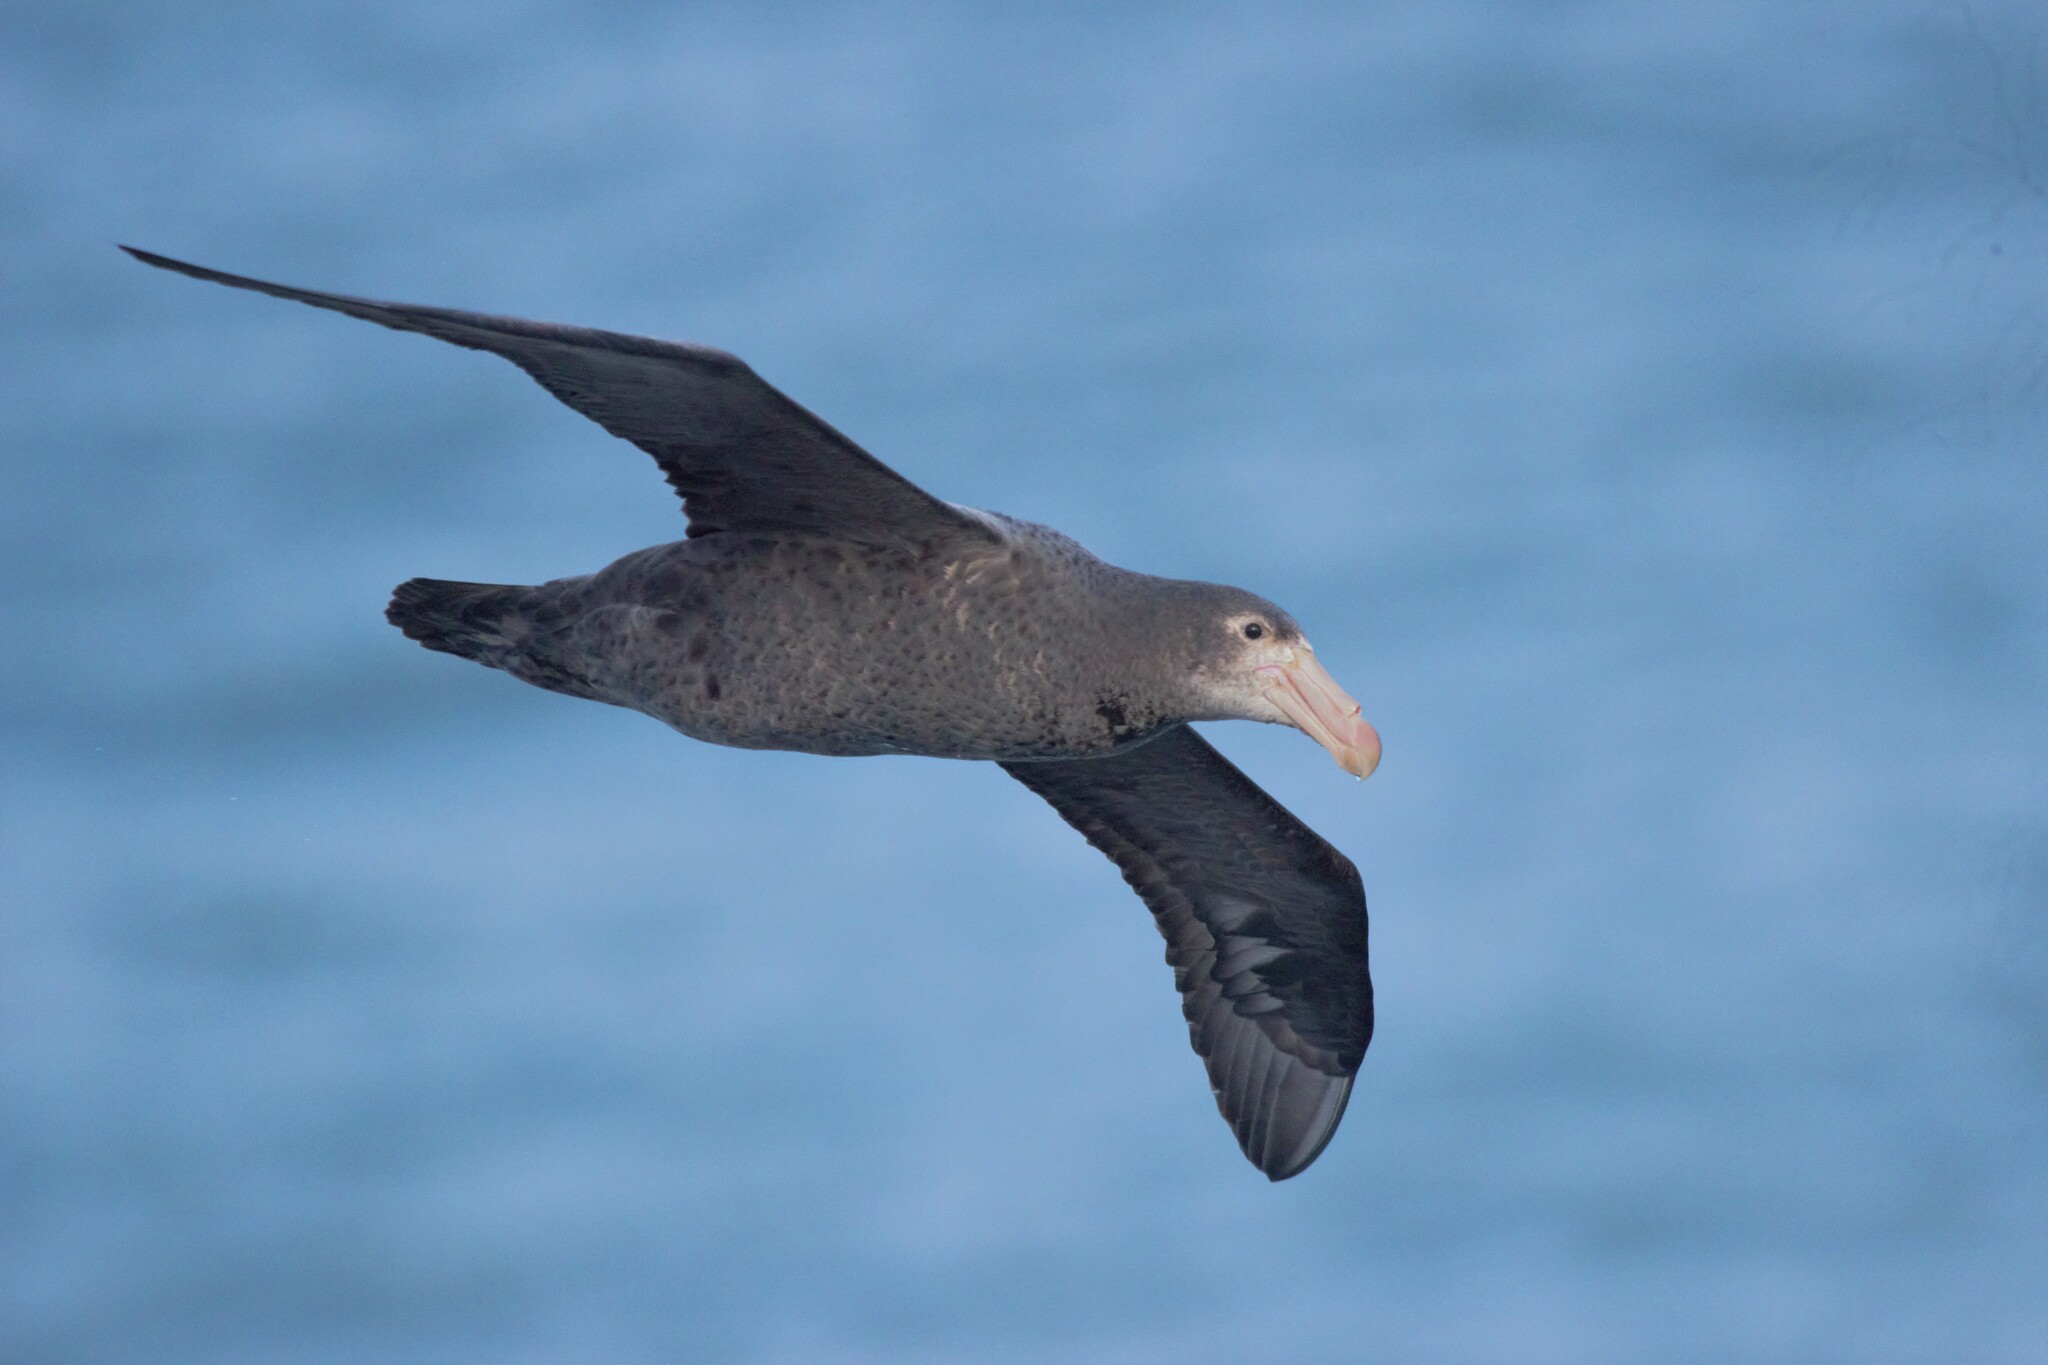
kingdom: Animalia
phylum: Chordata
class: Aves
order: Procellariiformes
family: Procellariidae
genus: Macronectes
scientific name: Macronectes giganteus
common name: Southern giant petrel
